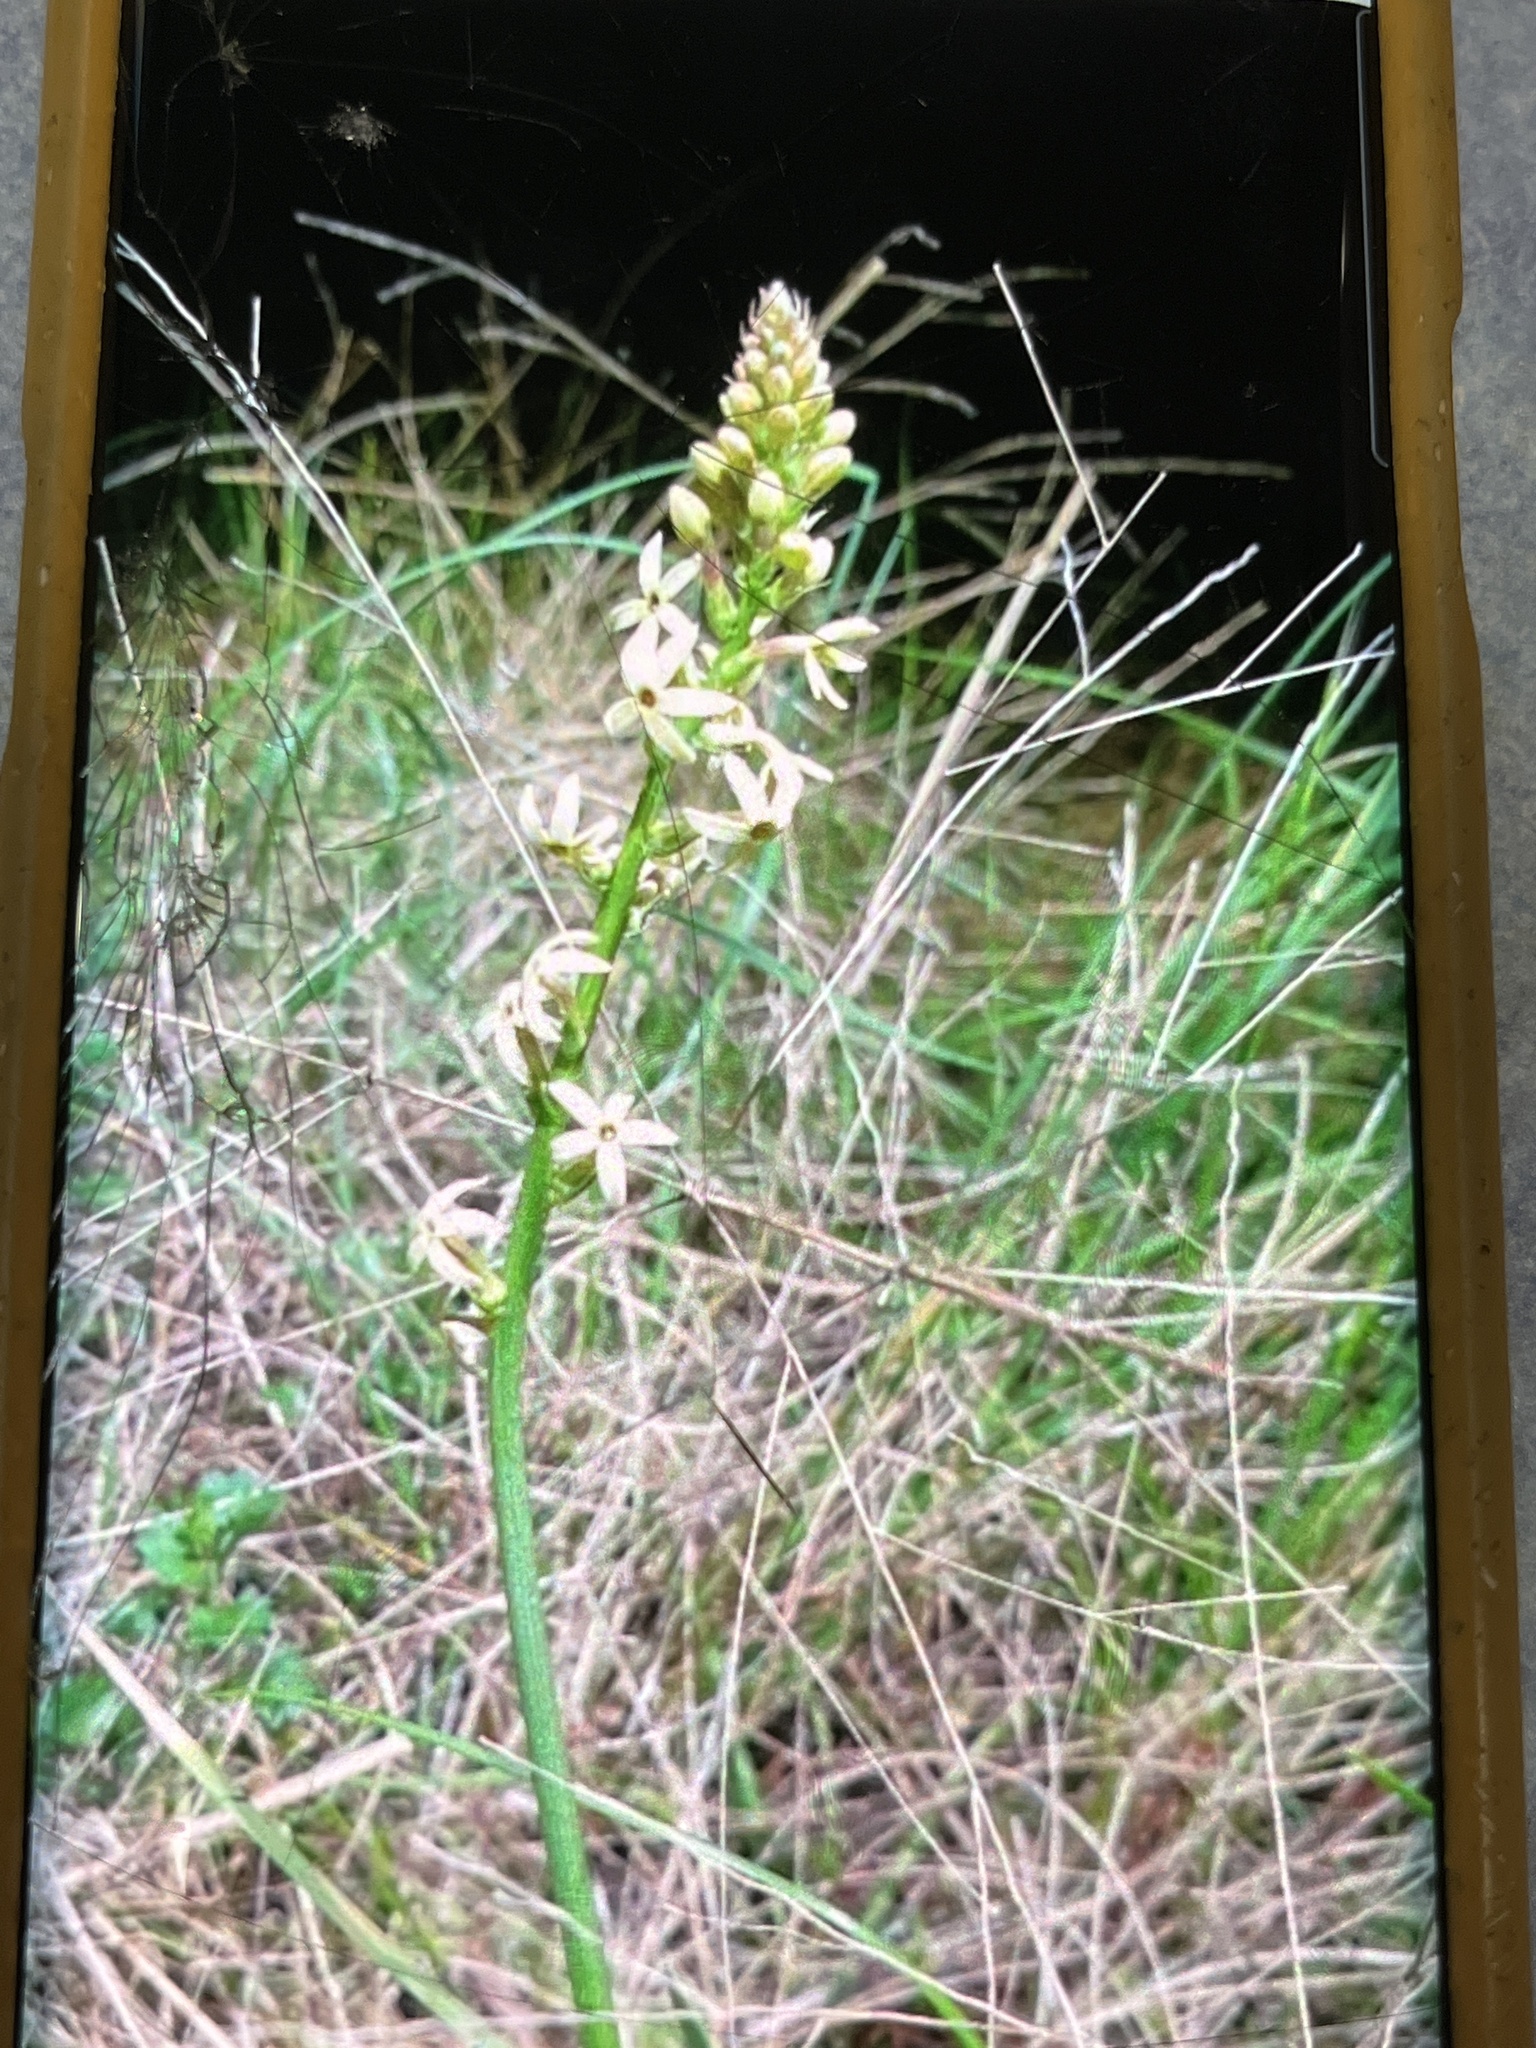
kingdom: Plantae
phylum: Tracheophyta
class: Magnoliopsida
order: Celastrales
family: Celastraceae
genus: Stackhousia
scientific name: Stackhousia monogyna
